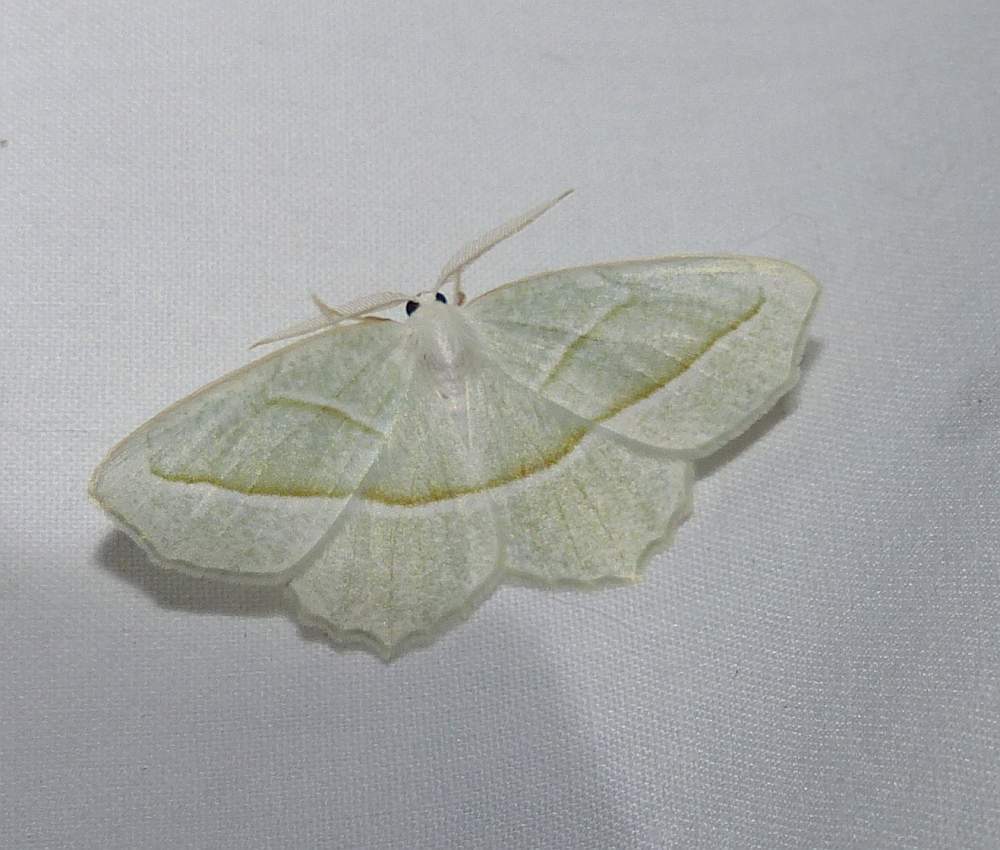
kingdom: Animalia
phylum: Arthropoda
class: Insecta
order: Lepidoptera
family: Geometridae
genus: Campaea
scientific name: Campaea perlata
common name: Fringed looper
